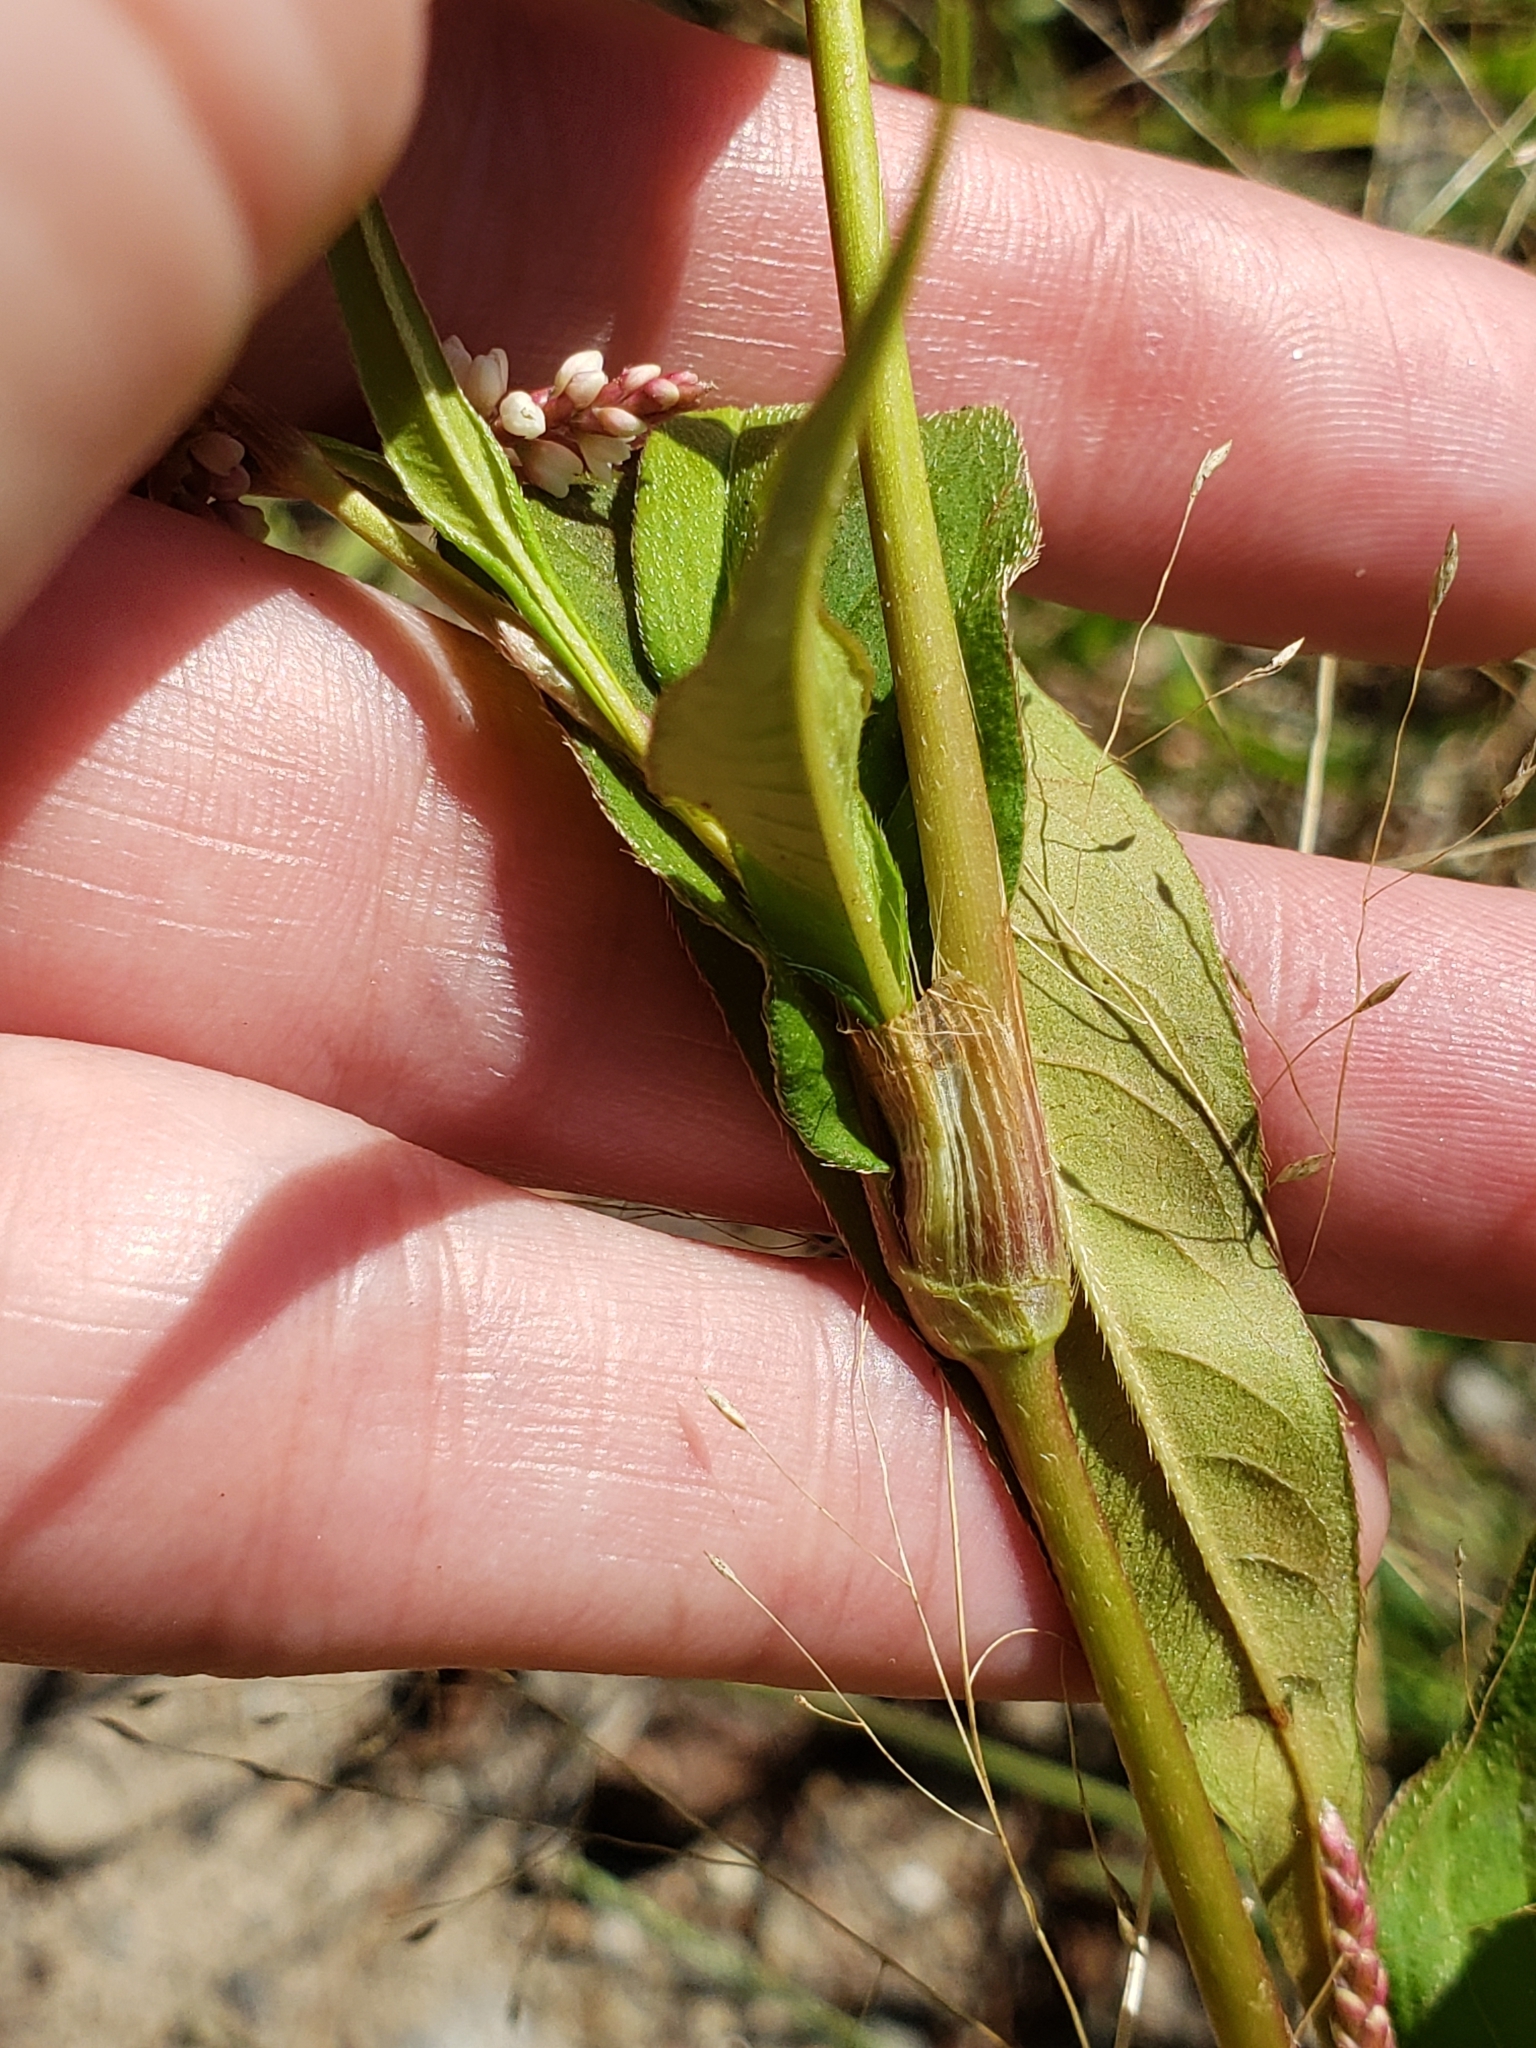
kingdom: Plantae
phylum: Tracheophyta
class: Magnoliopsida
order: Caryophyllales
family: Polygonaceae
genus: Persicaria
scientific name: Persicaria extremiorientalis
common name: Far-eastern smartweed
